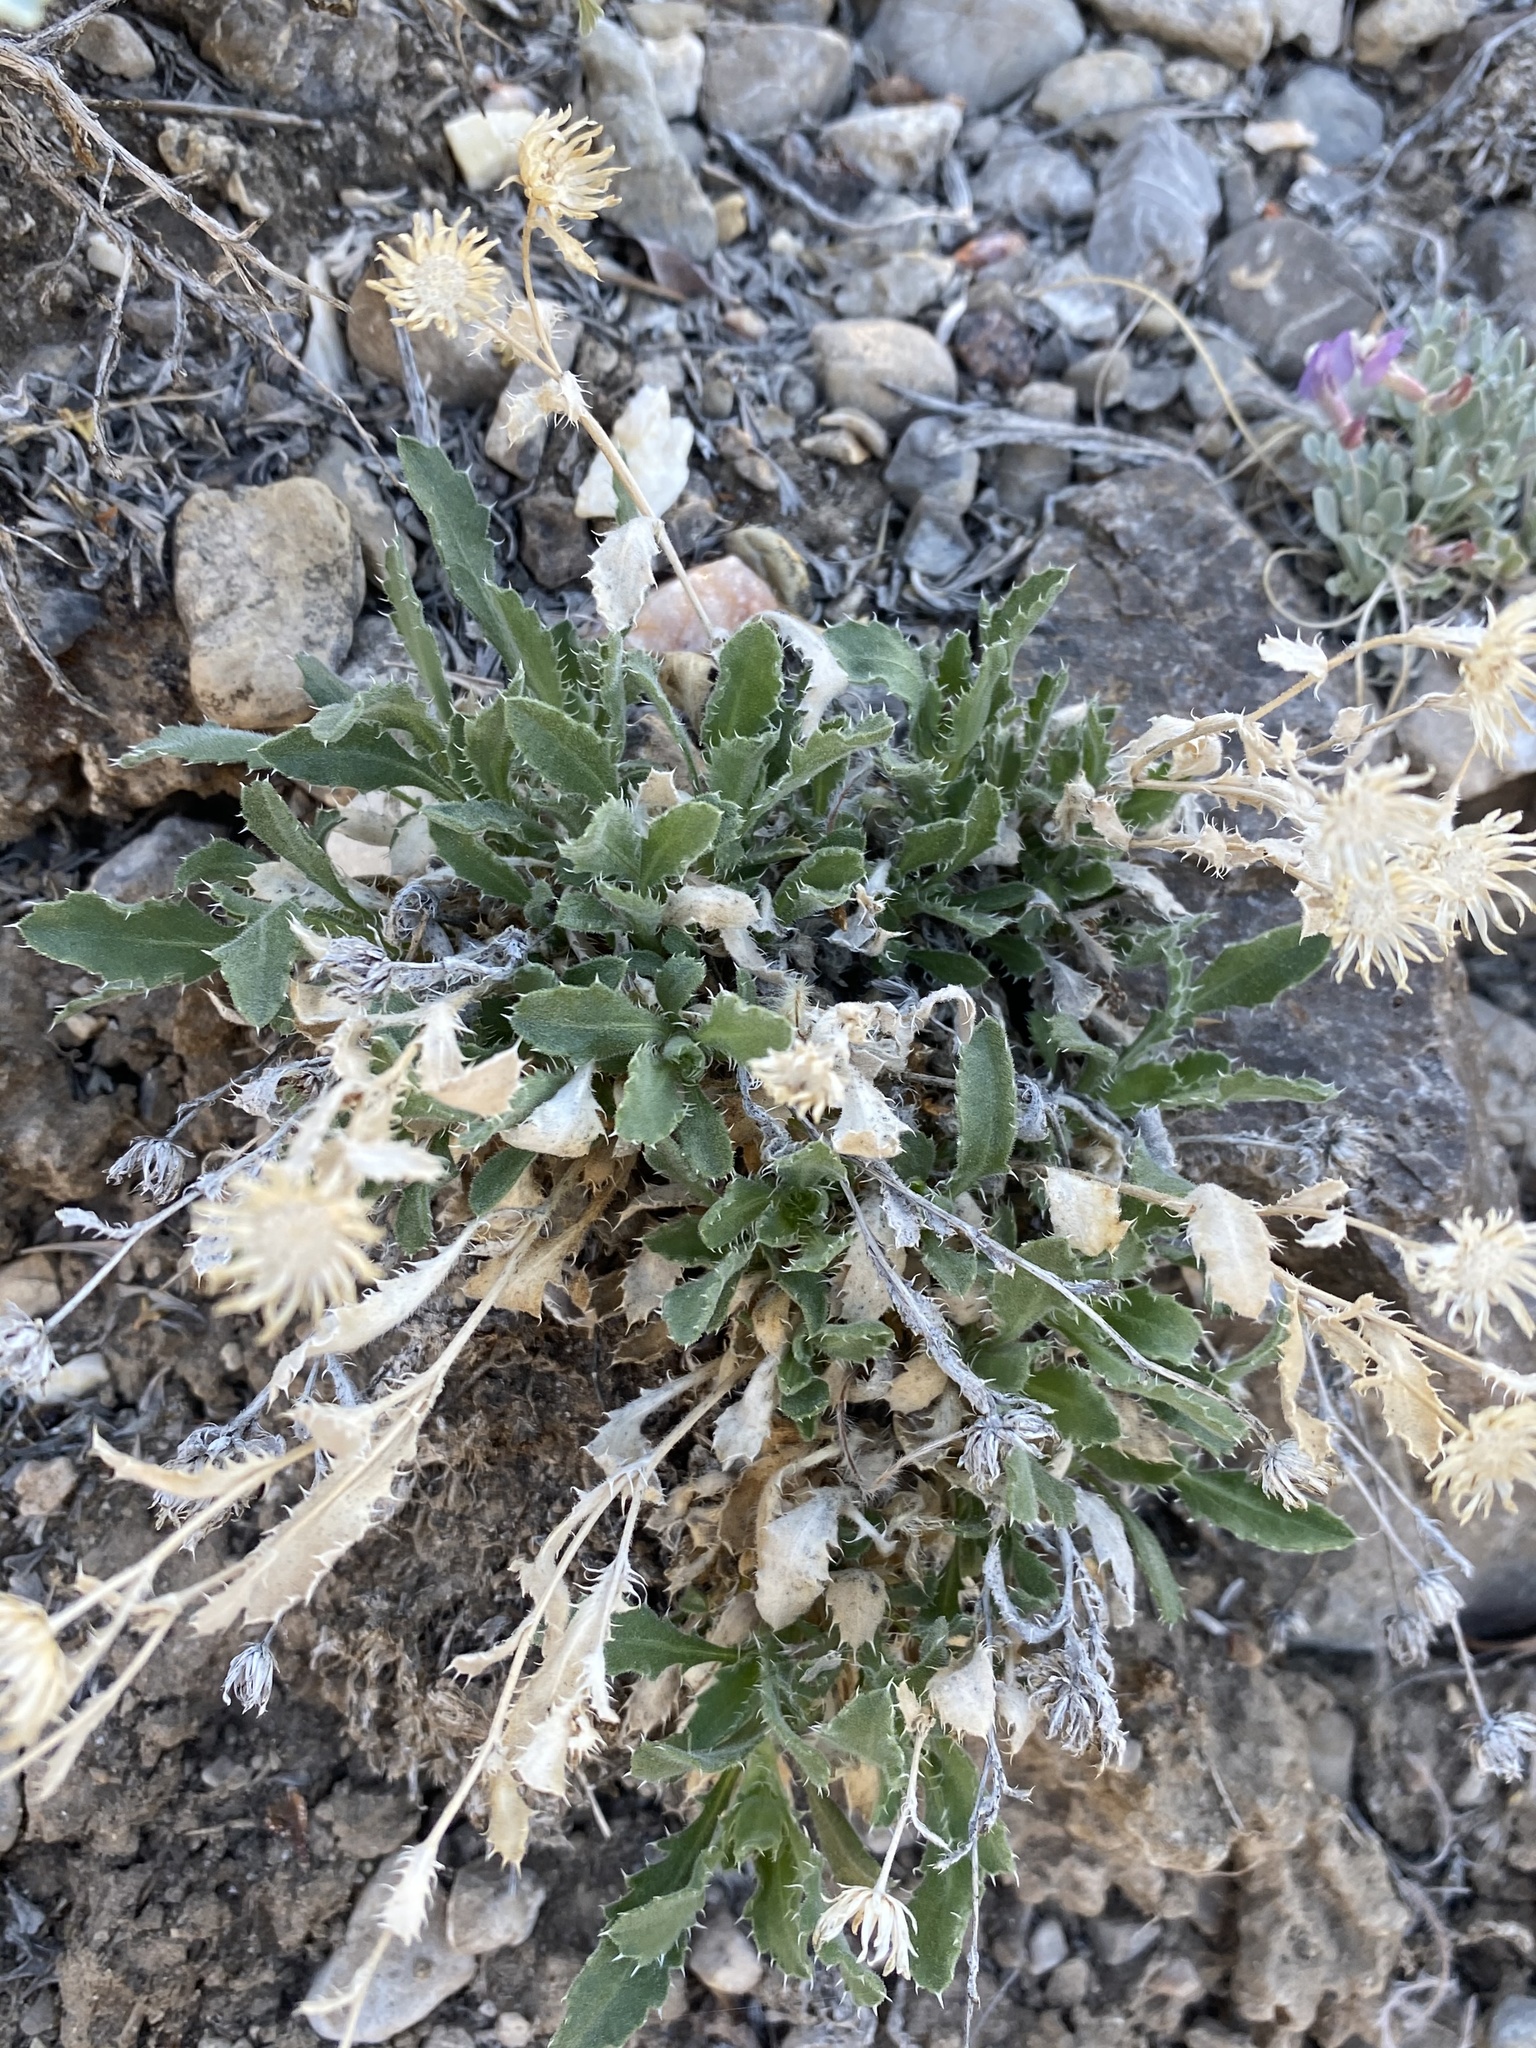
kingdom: Plantae
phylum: Tracheophyta
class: Magnoliopsida
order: Asterales
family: Asteraceae
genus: Xanthisma
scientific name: Xanthisma grindelioides
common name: Goldenweed
